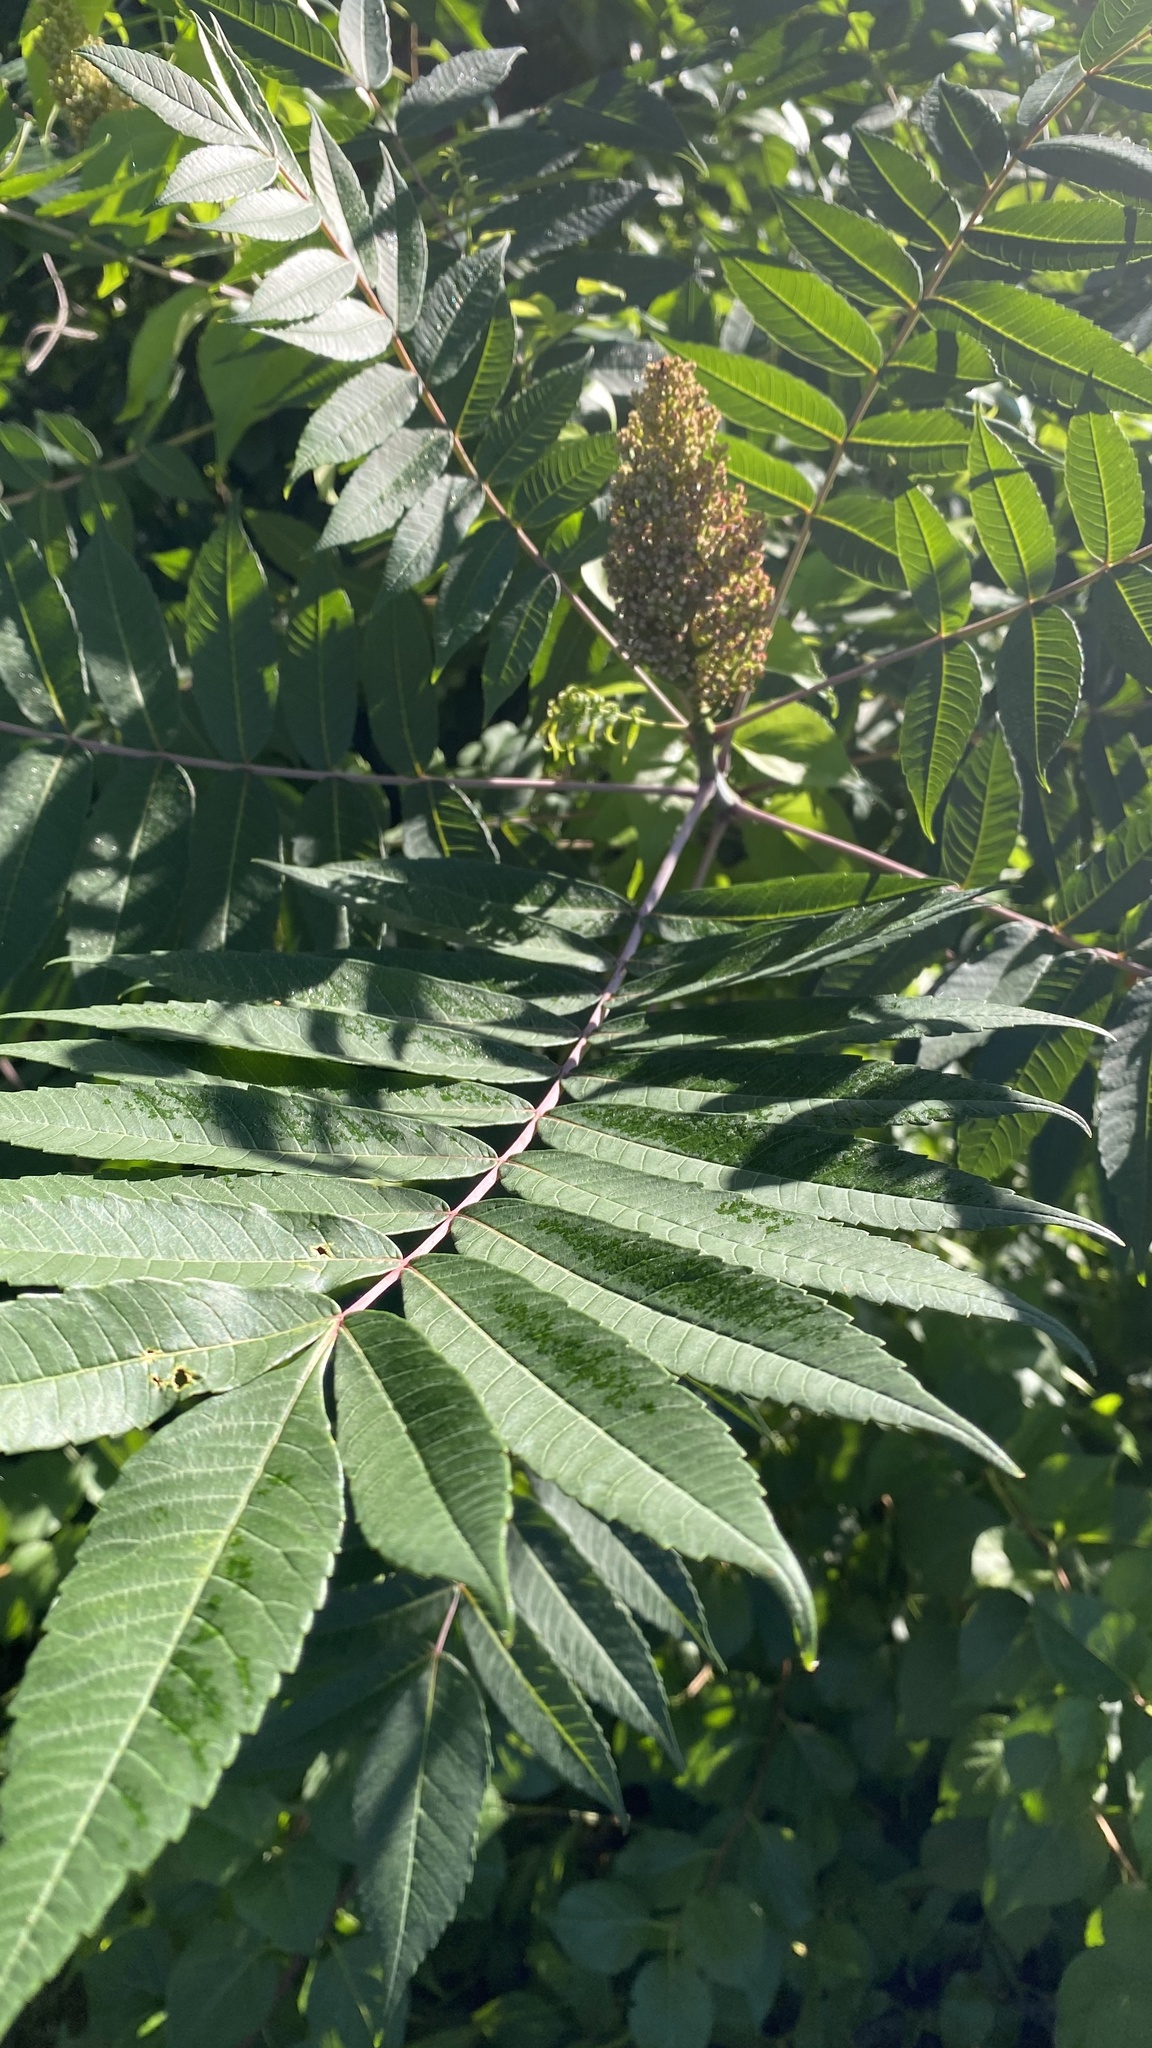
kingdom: Plantae
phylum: Tracheophyta
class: Magnoliopsida
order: Sapindales
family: Anacardiaceae
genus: Rhus
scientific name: Rhus glabra
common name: Scarlet sumac
